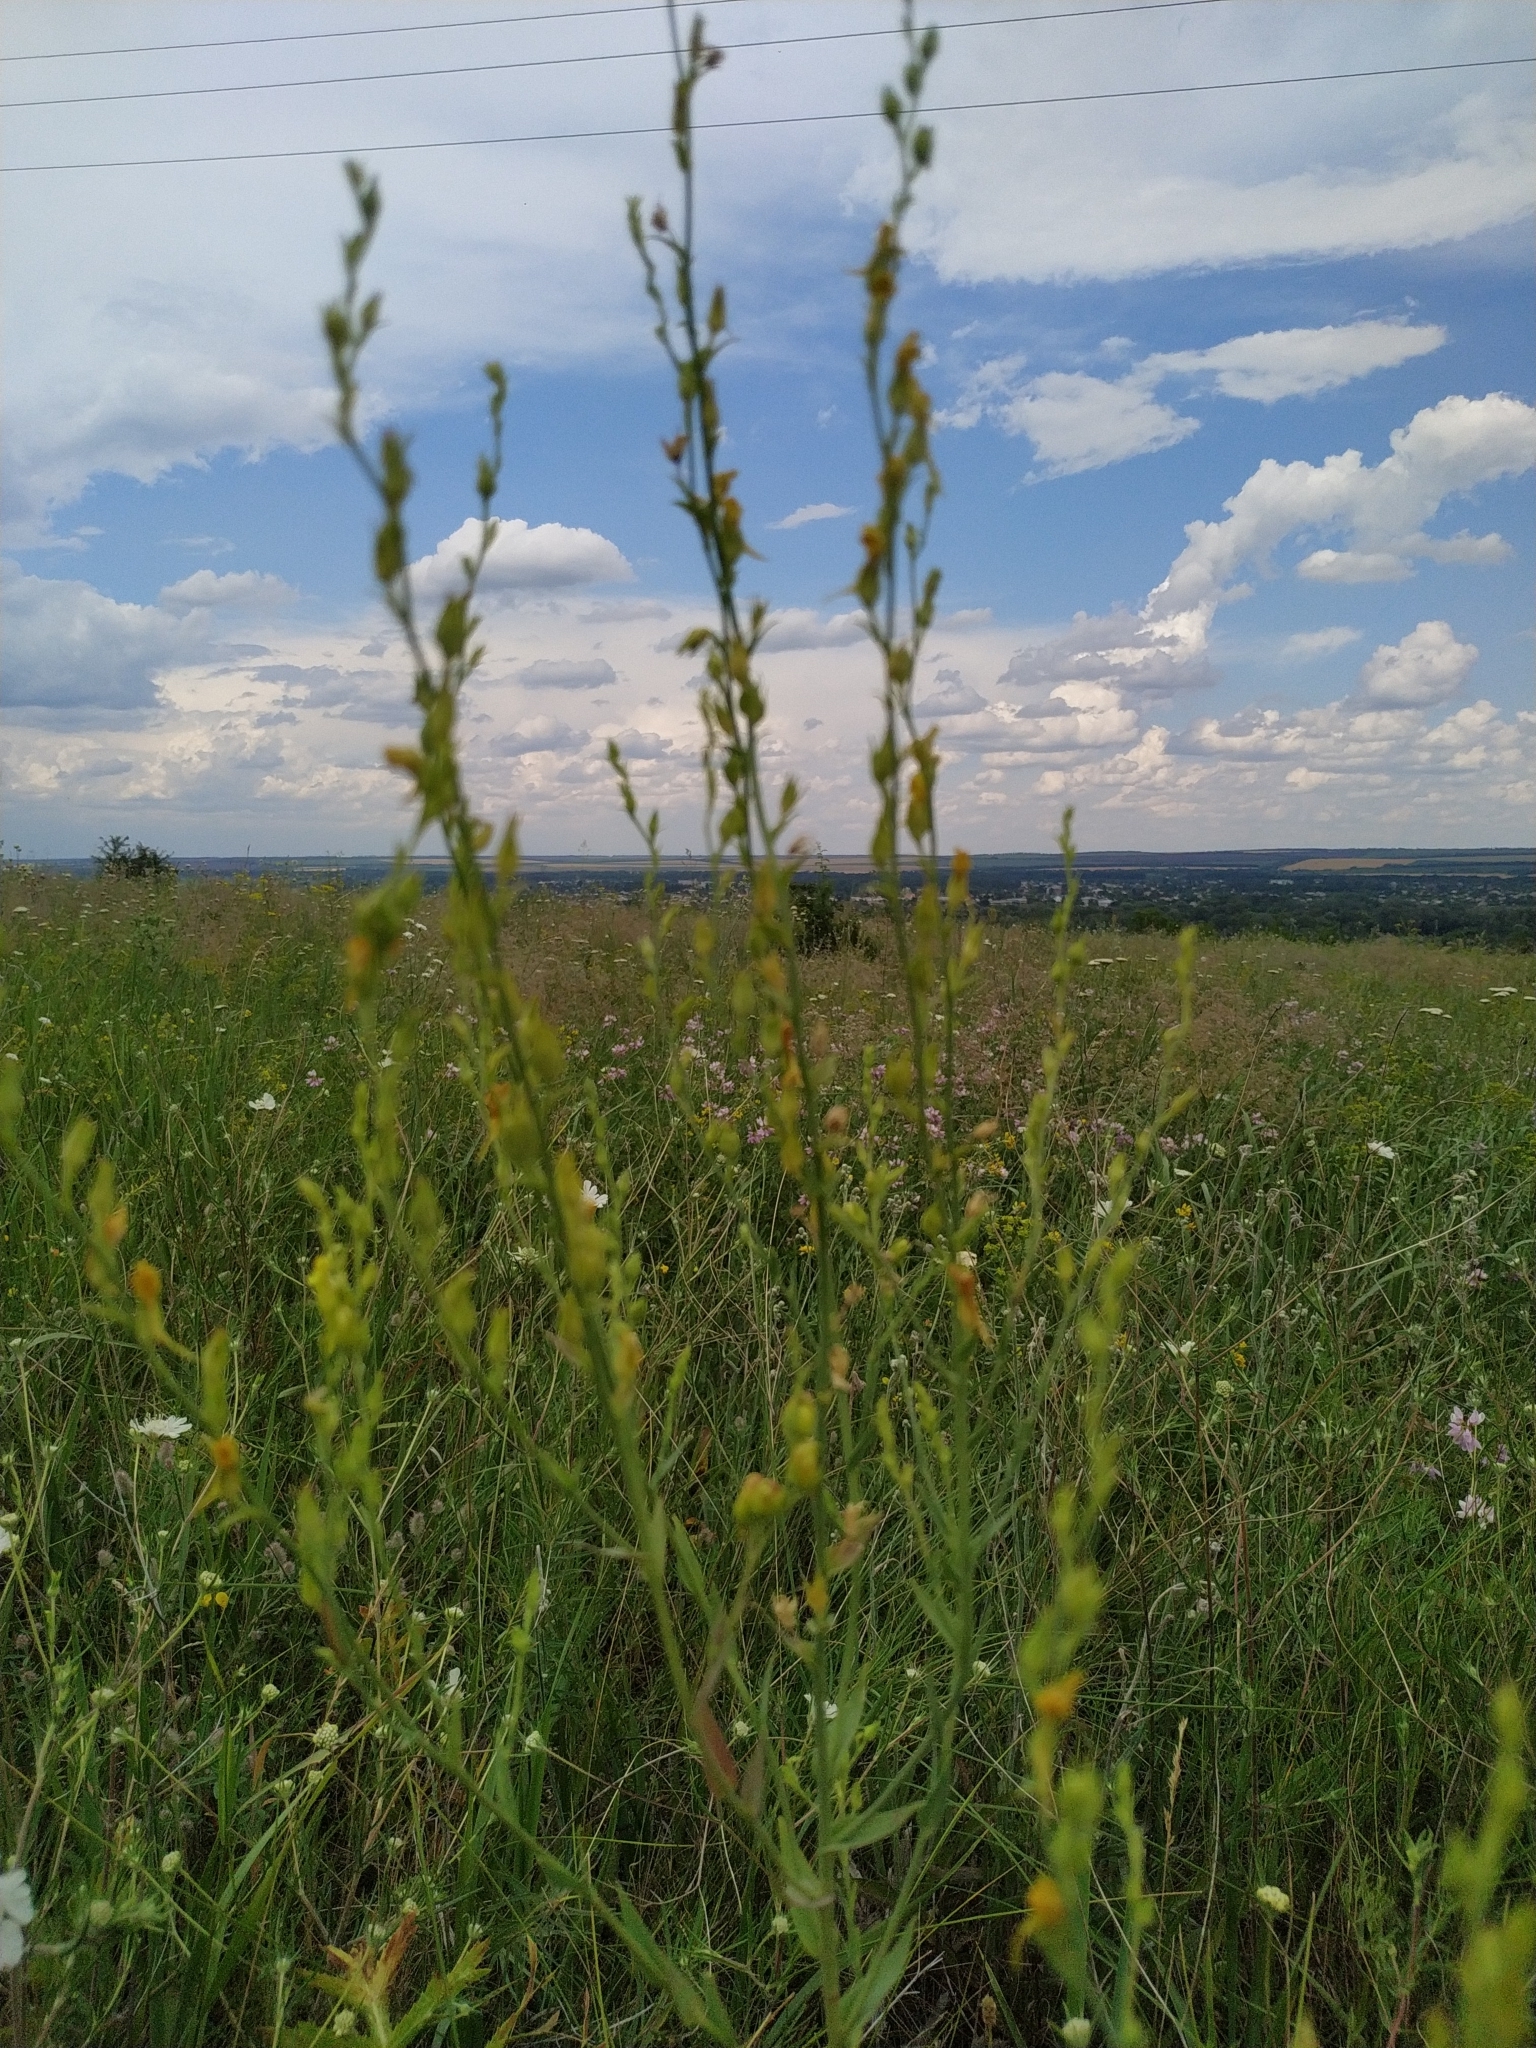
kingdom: Plantae
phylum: Tracheophyta
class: Magnoliopsida
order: Lamiales
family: Plantaginaceae
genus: Linaria
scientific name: Linaria genistifolia
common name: Broomleaf toadflax
